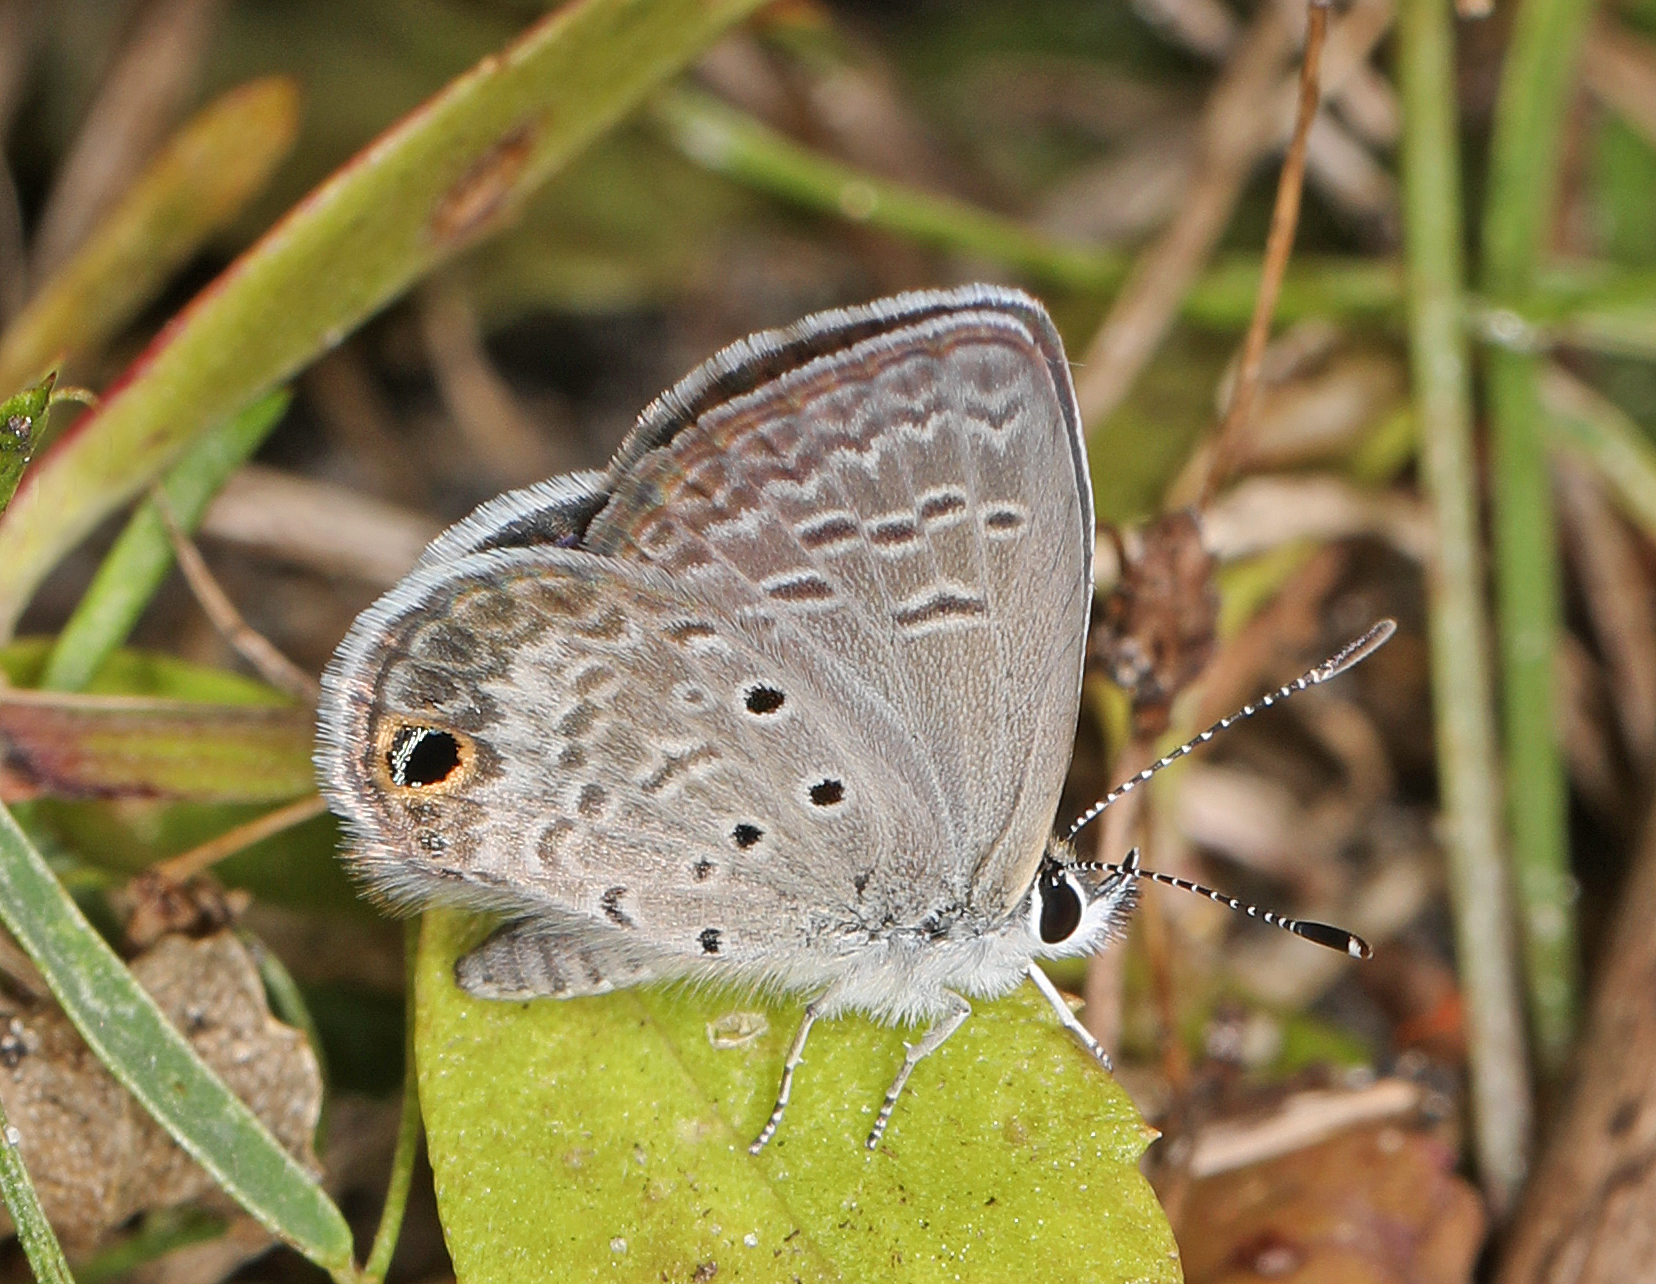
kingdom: Animalia
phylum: Arthropoda
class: Insecta
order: Lepidoptera
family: Lycaenidae
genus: Hemiargus
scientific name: Hemiargus ceraunus
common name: Ceraunus blue
